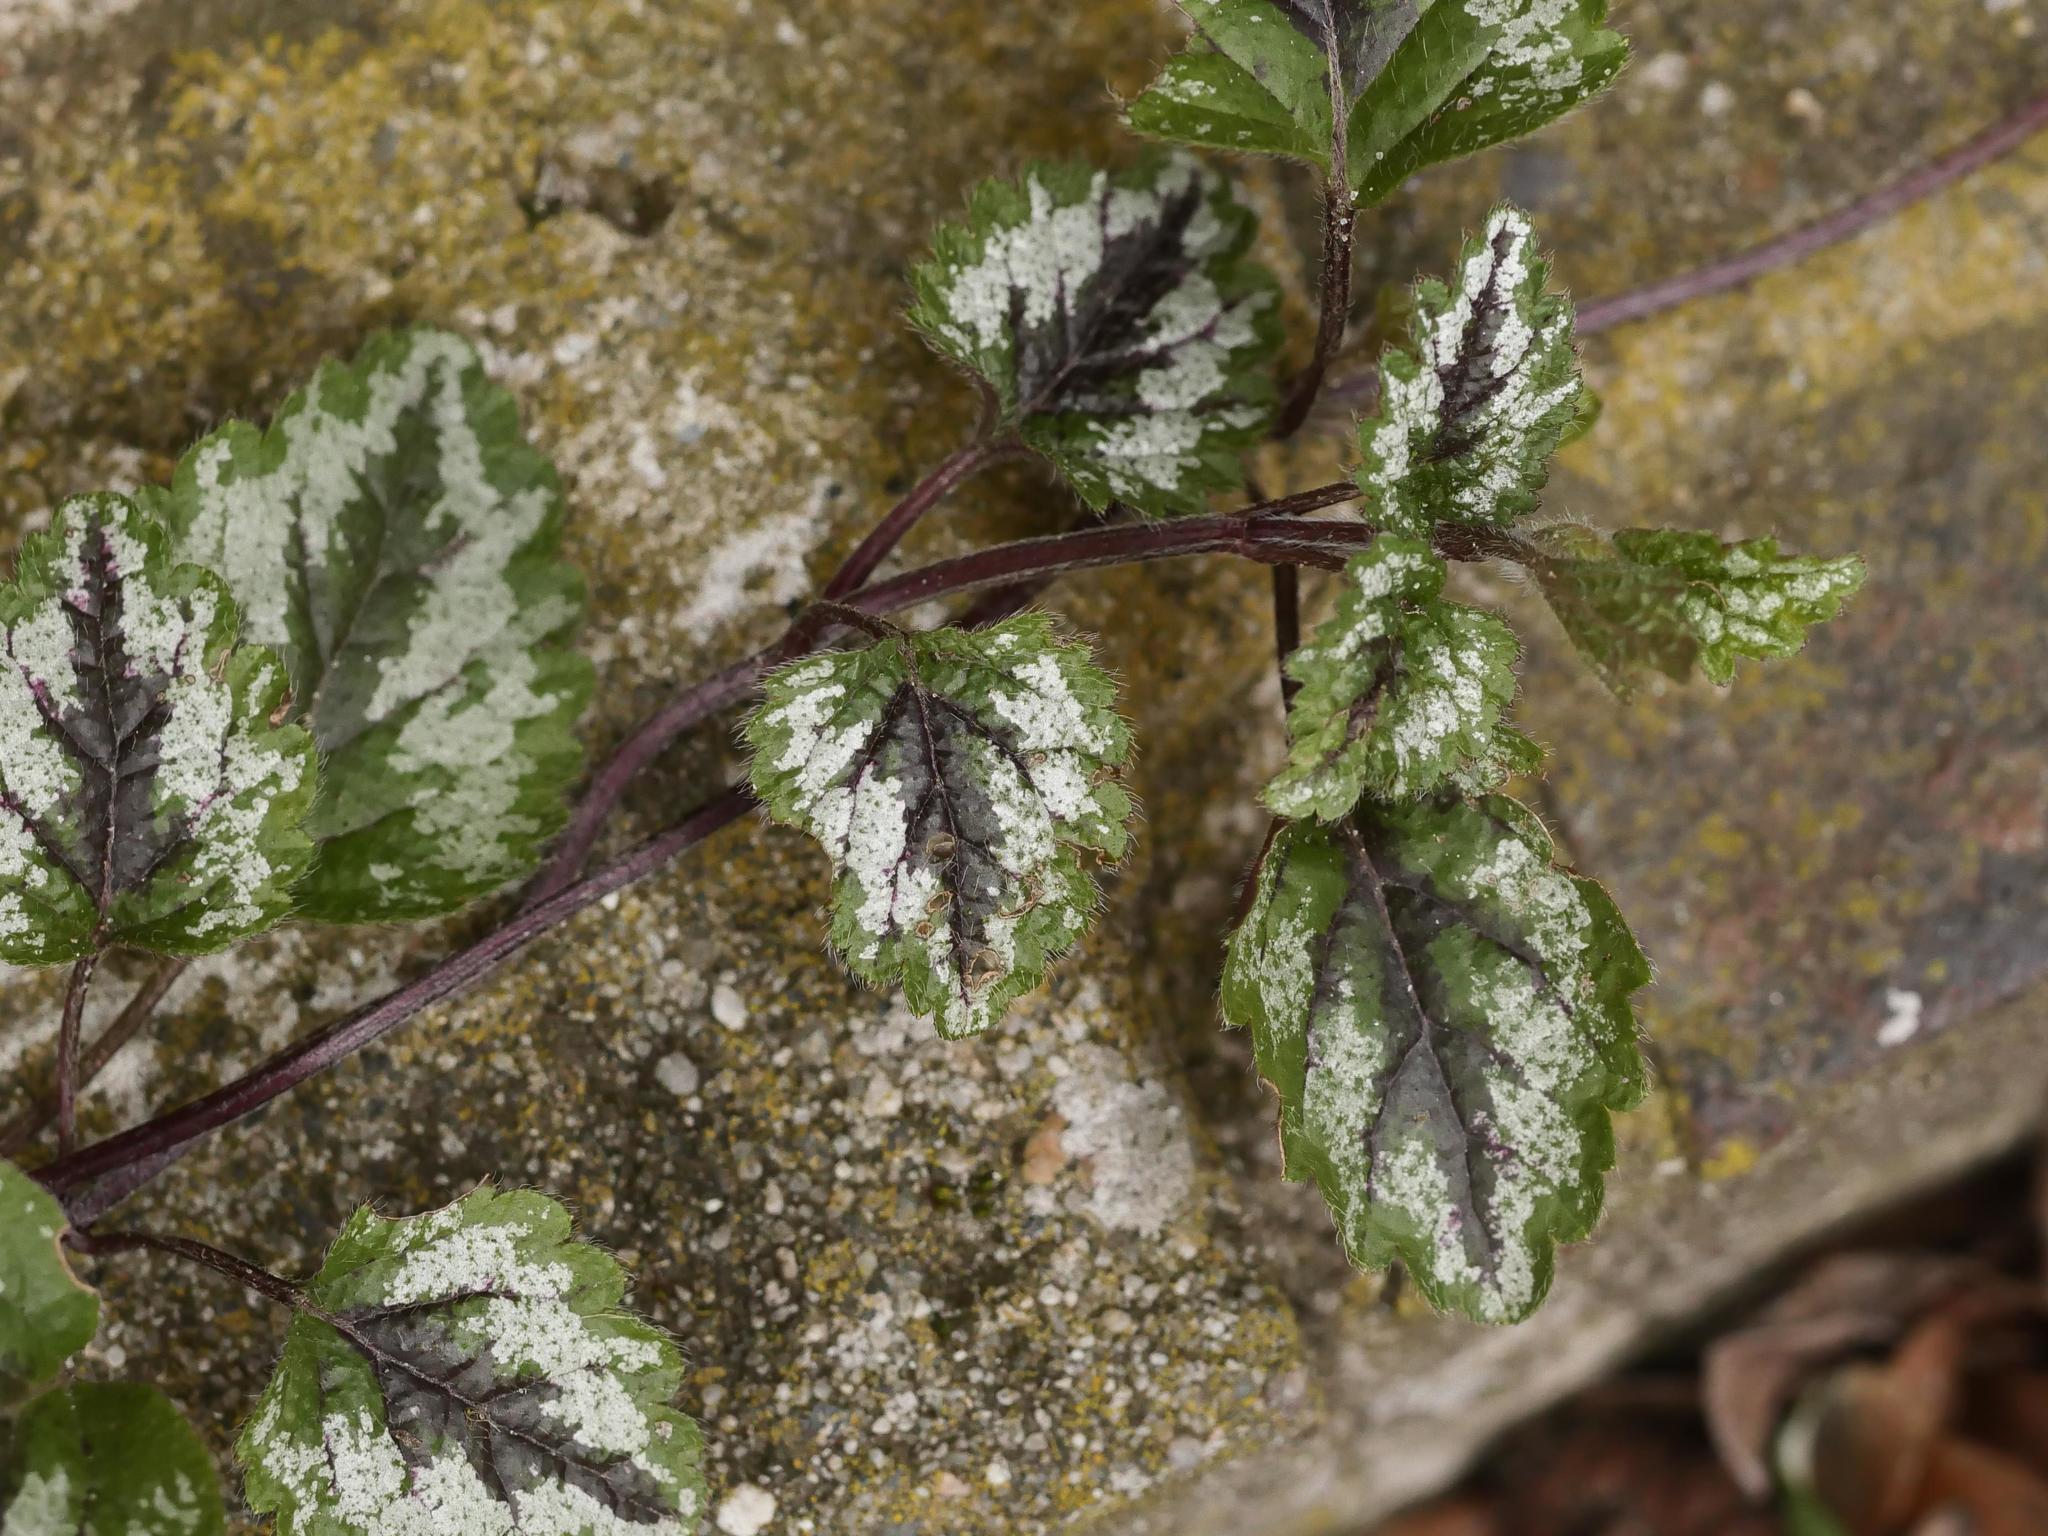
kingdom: Plantae
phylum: Tracheophyta
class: Magnoliopsida
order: Lamiales
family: Lamiaceae
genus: Lamium
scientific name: Lamium galeobdolon
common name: Yellow archangel
